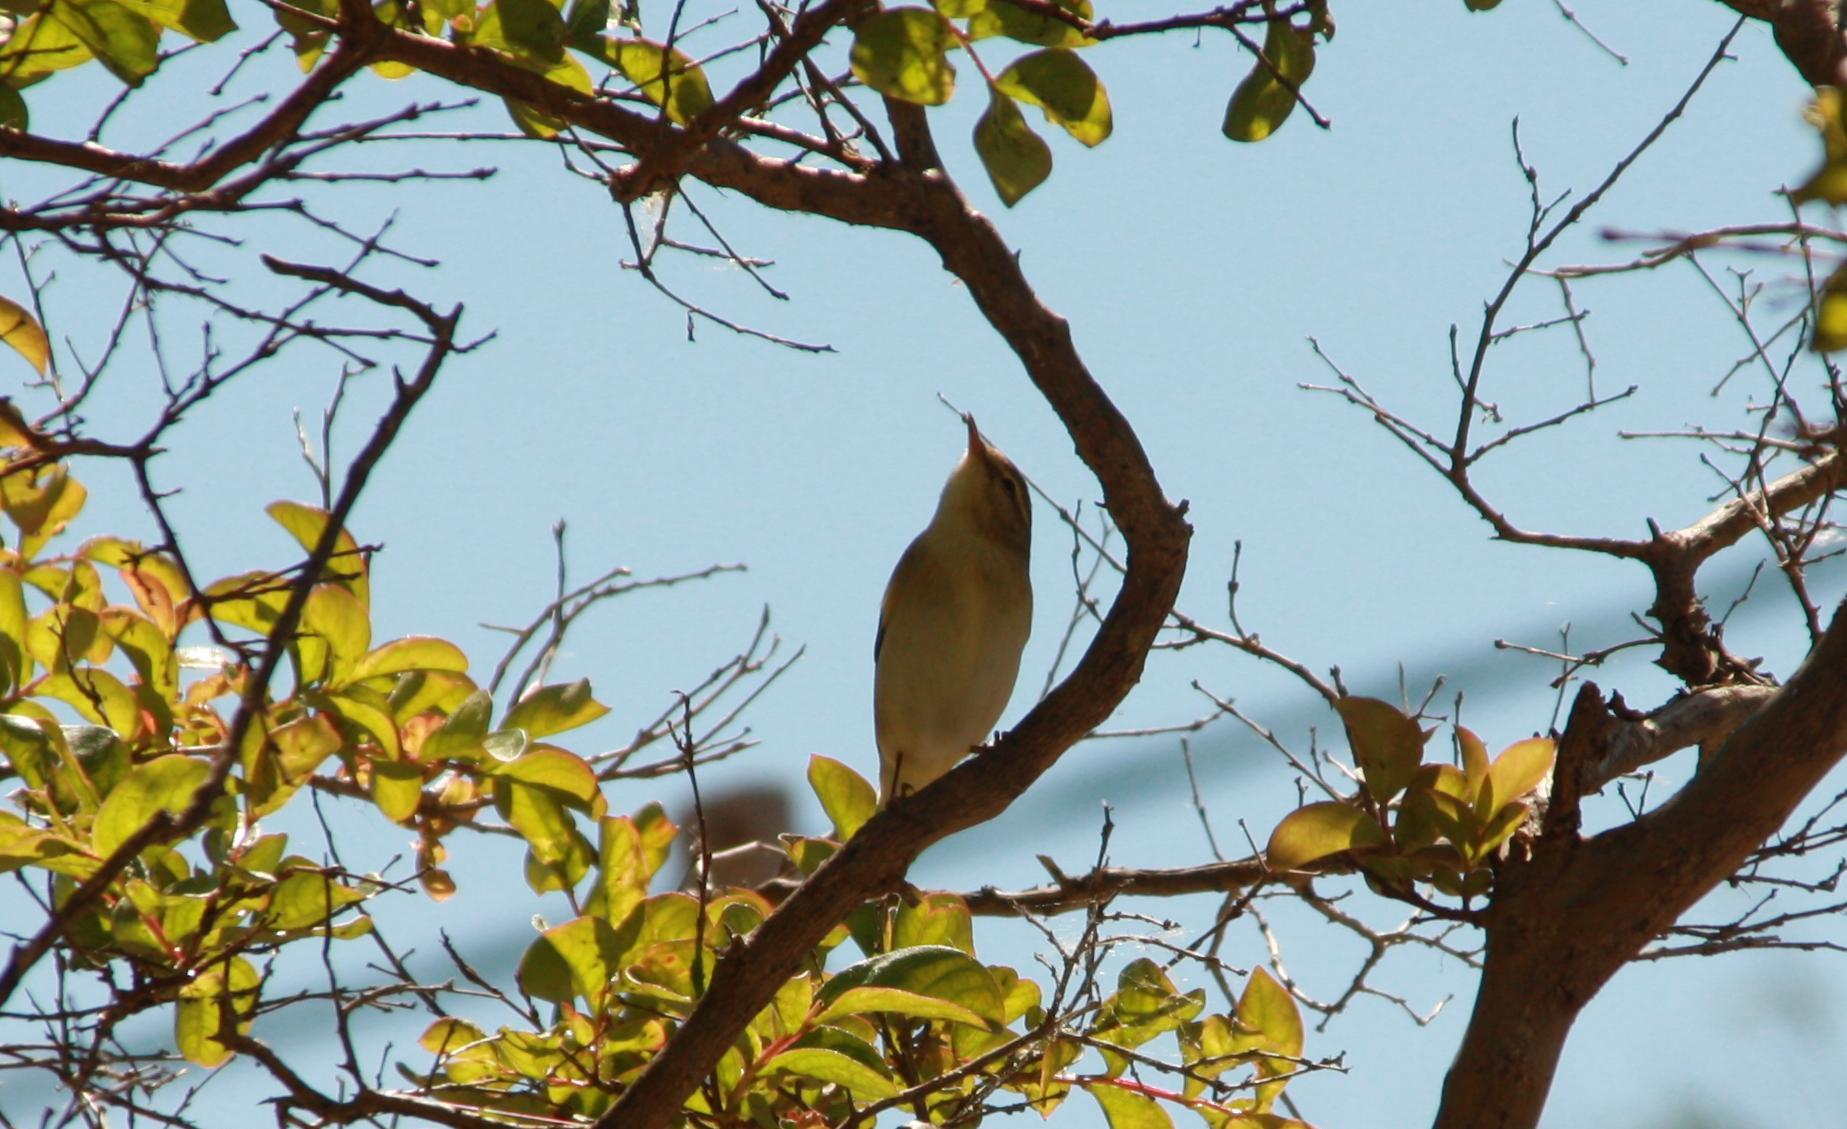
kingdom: Animalia
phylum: Chordata
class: Aves
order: Passeriformes
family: Phylloscopidae
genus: Phylloscopus
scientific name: Phylloscopus collybita
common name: Common chiffchaff
